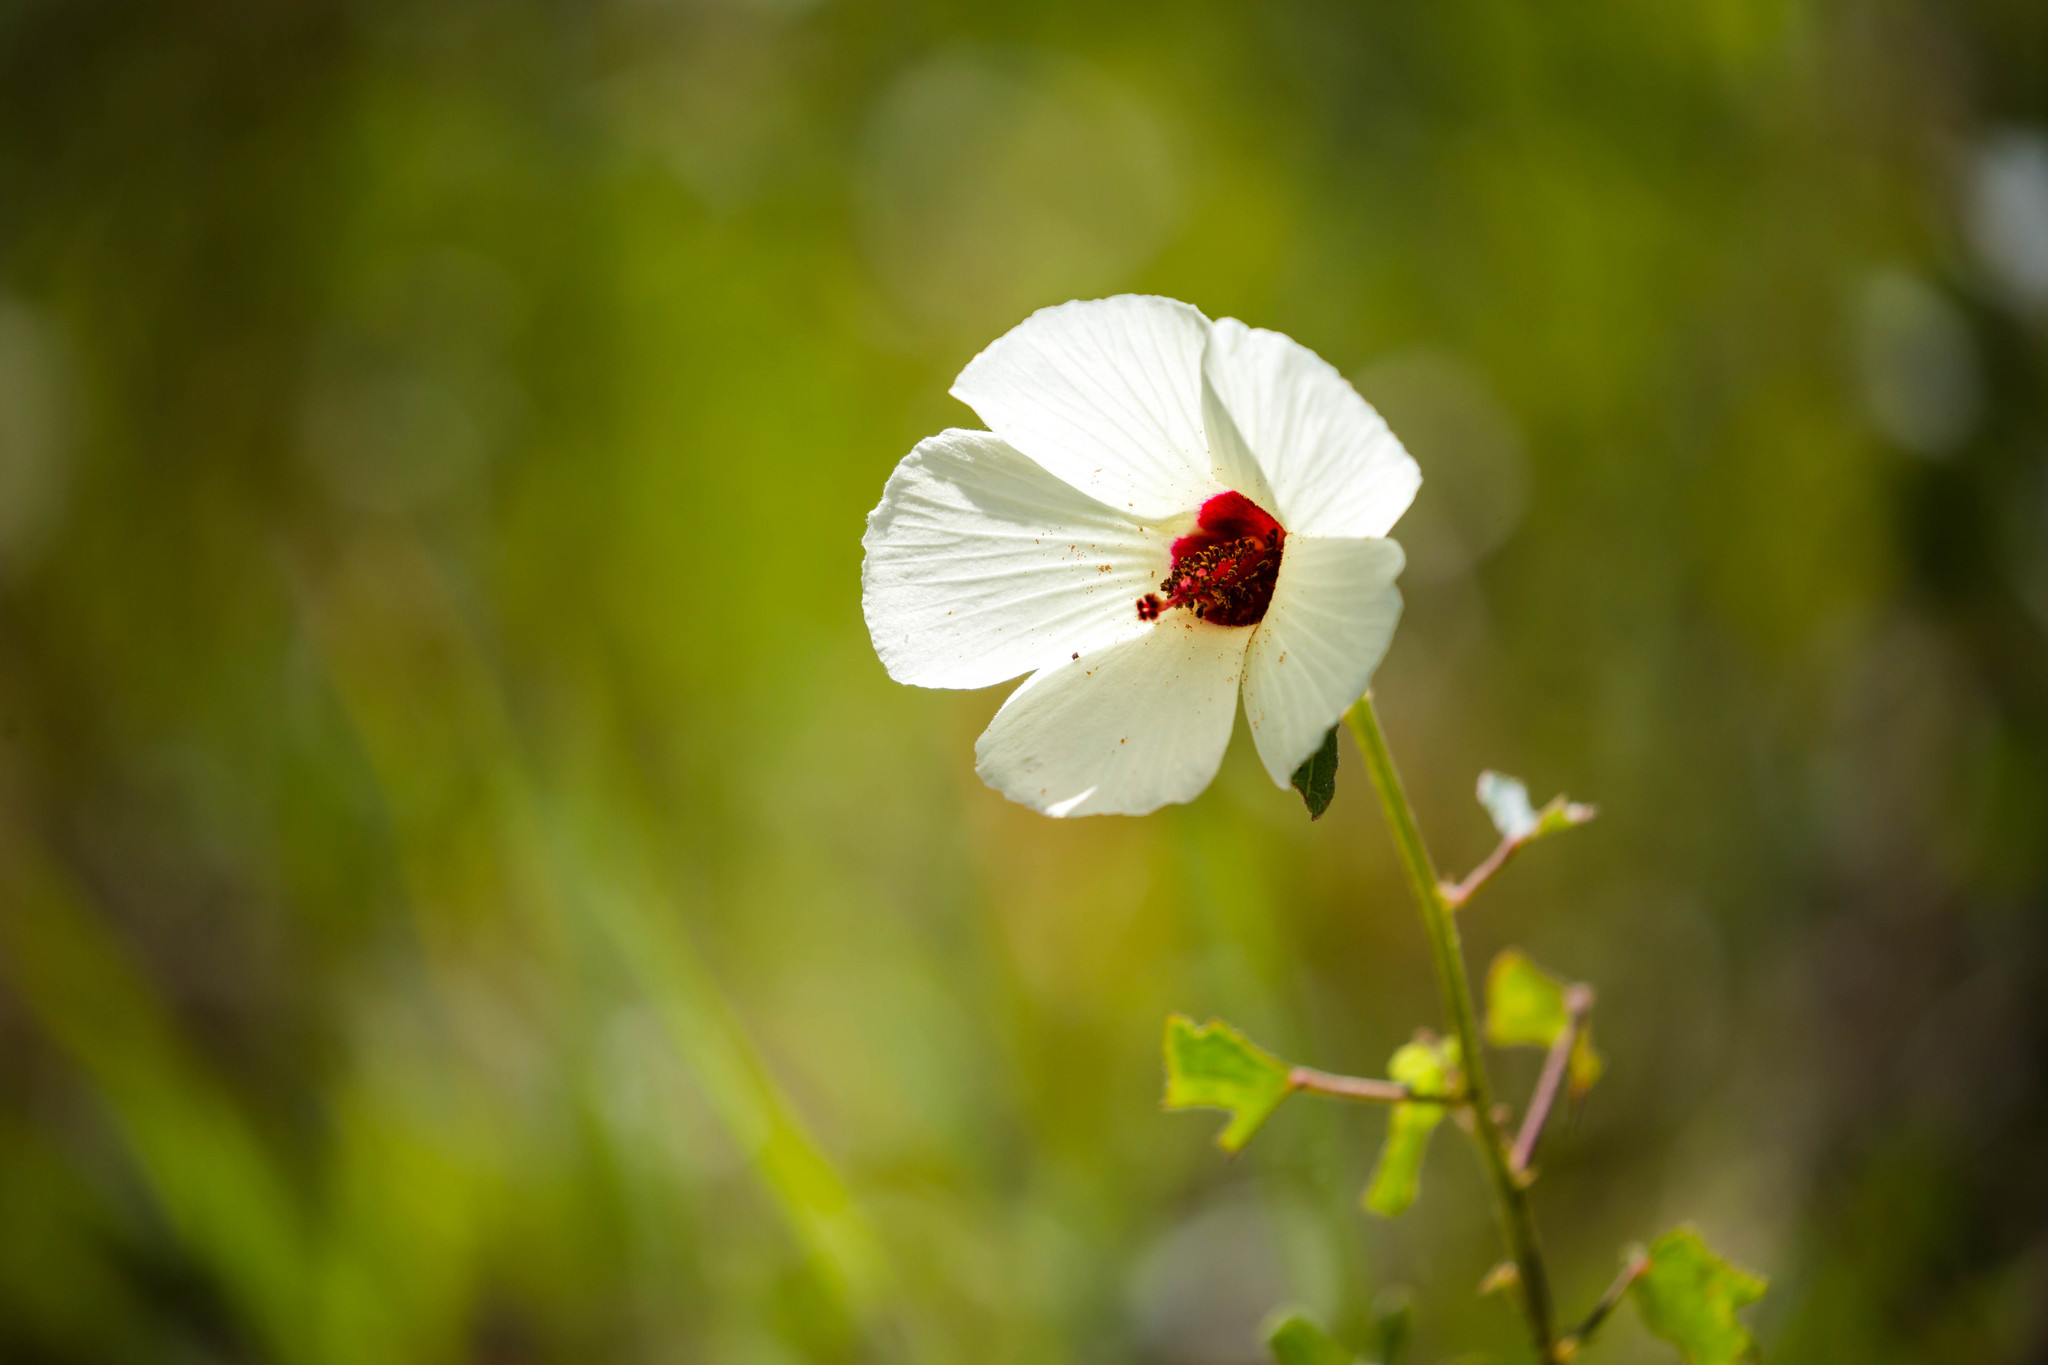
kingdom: Plantae
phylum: Tracheophyta
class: Magnoliopsida
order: Malvales
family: Malvaceae
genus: Hibiscus
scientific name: Hibiscus aculeatus
